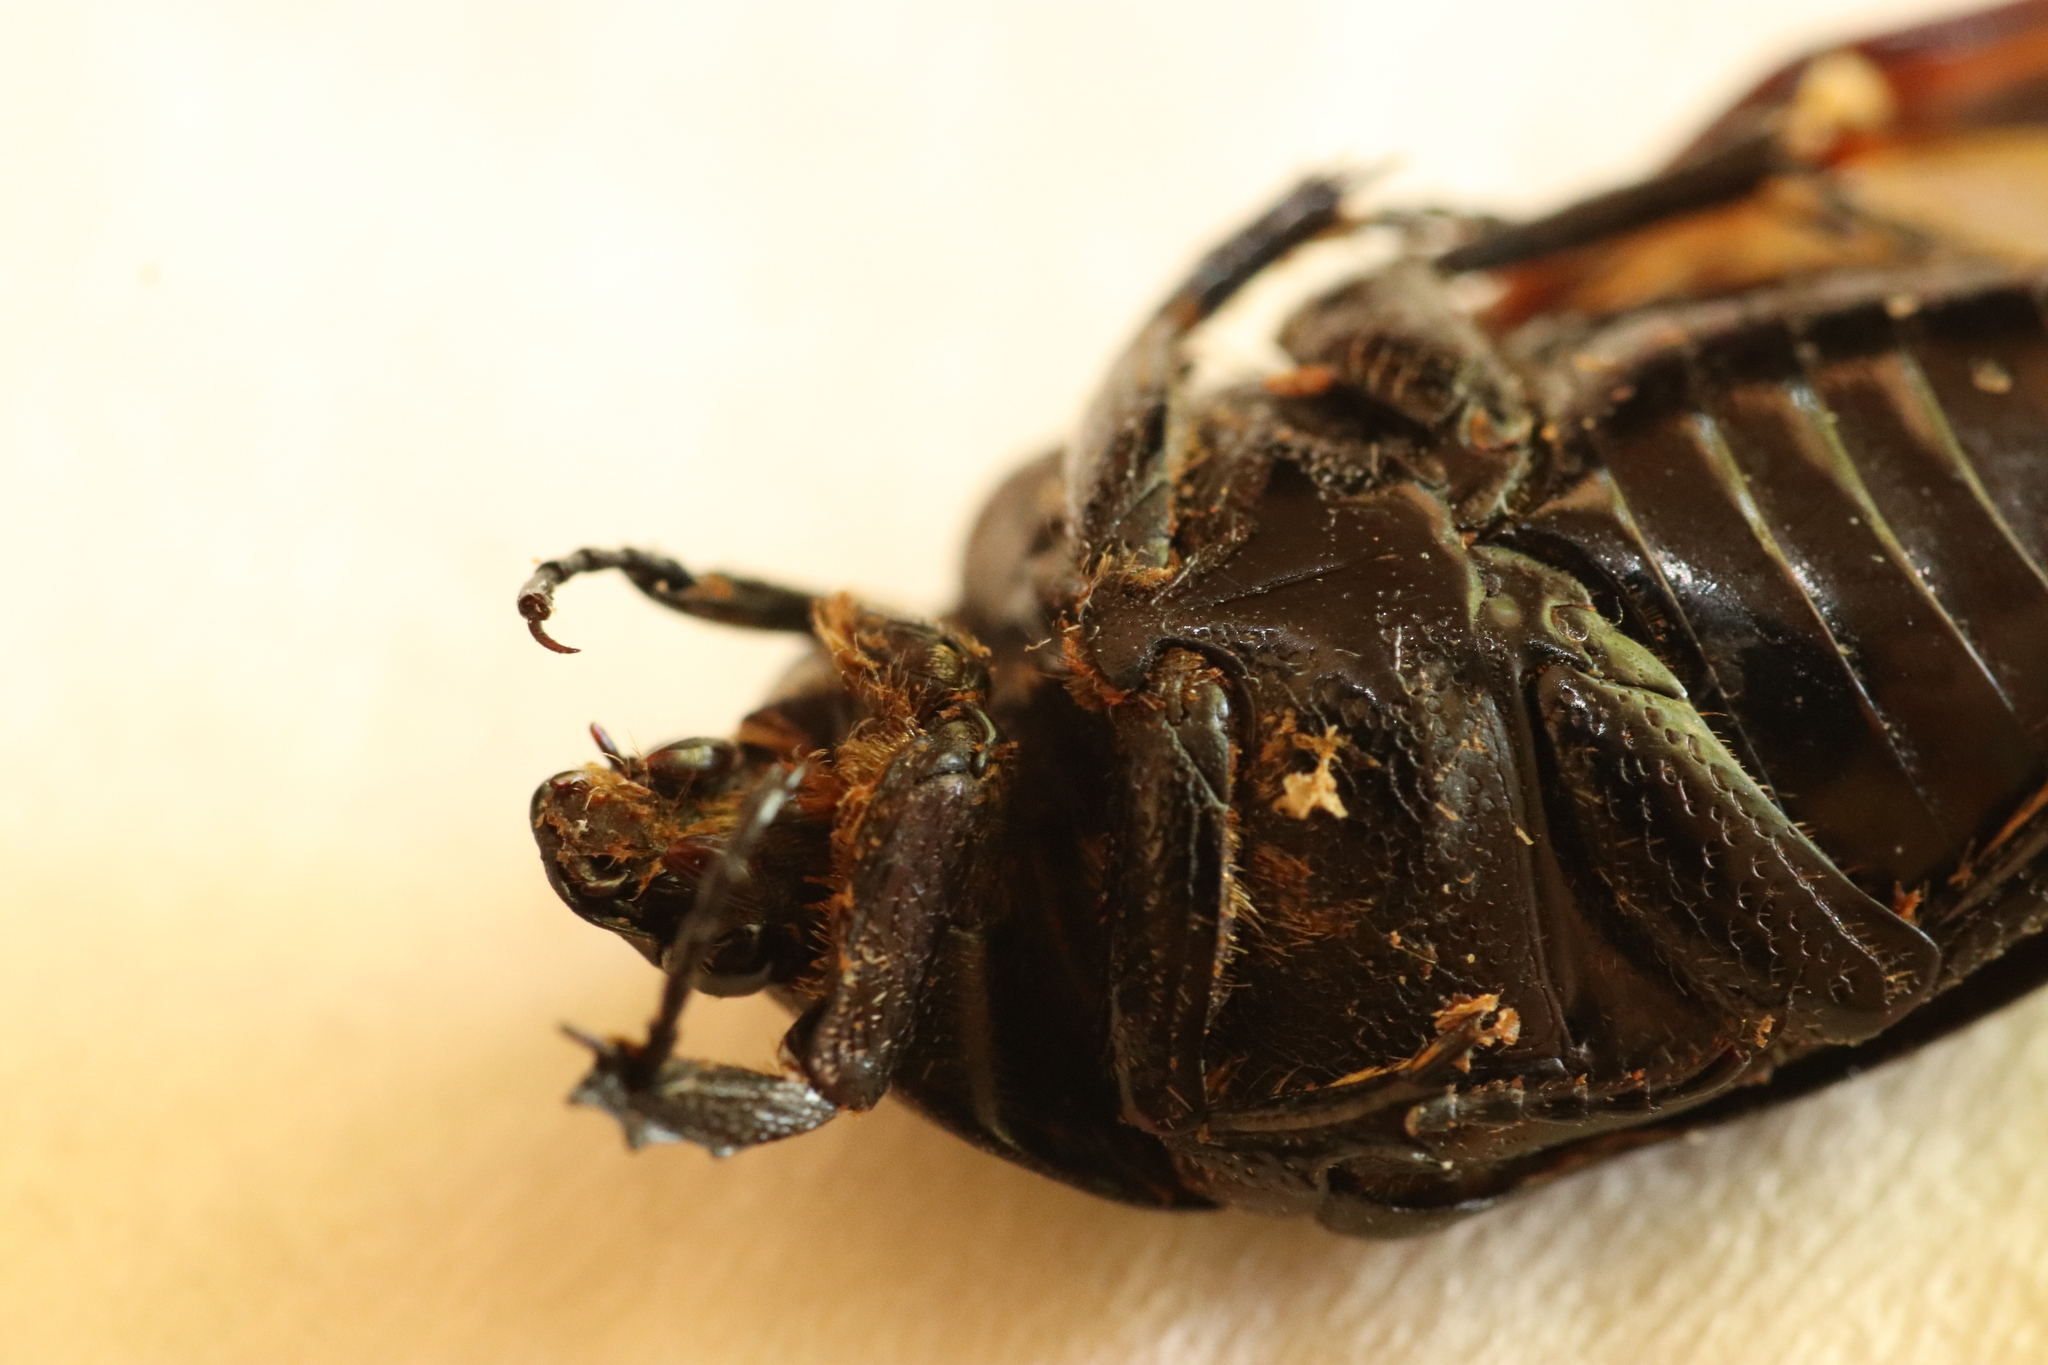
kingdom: Animalia
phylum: Arthropoda
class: Insecta
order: Coleoptera
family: Scarabaeidae
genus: Protaetia
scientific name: Protaetia morio
